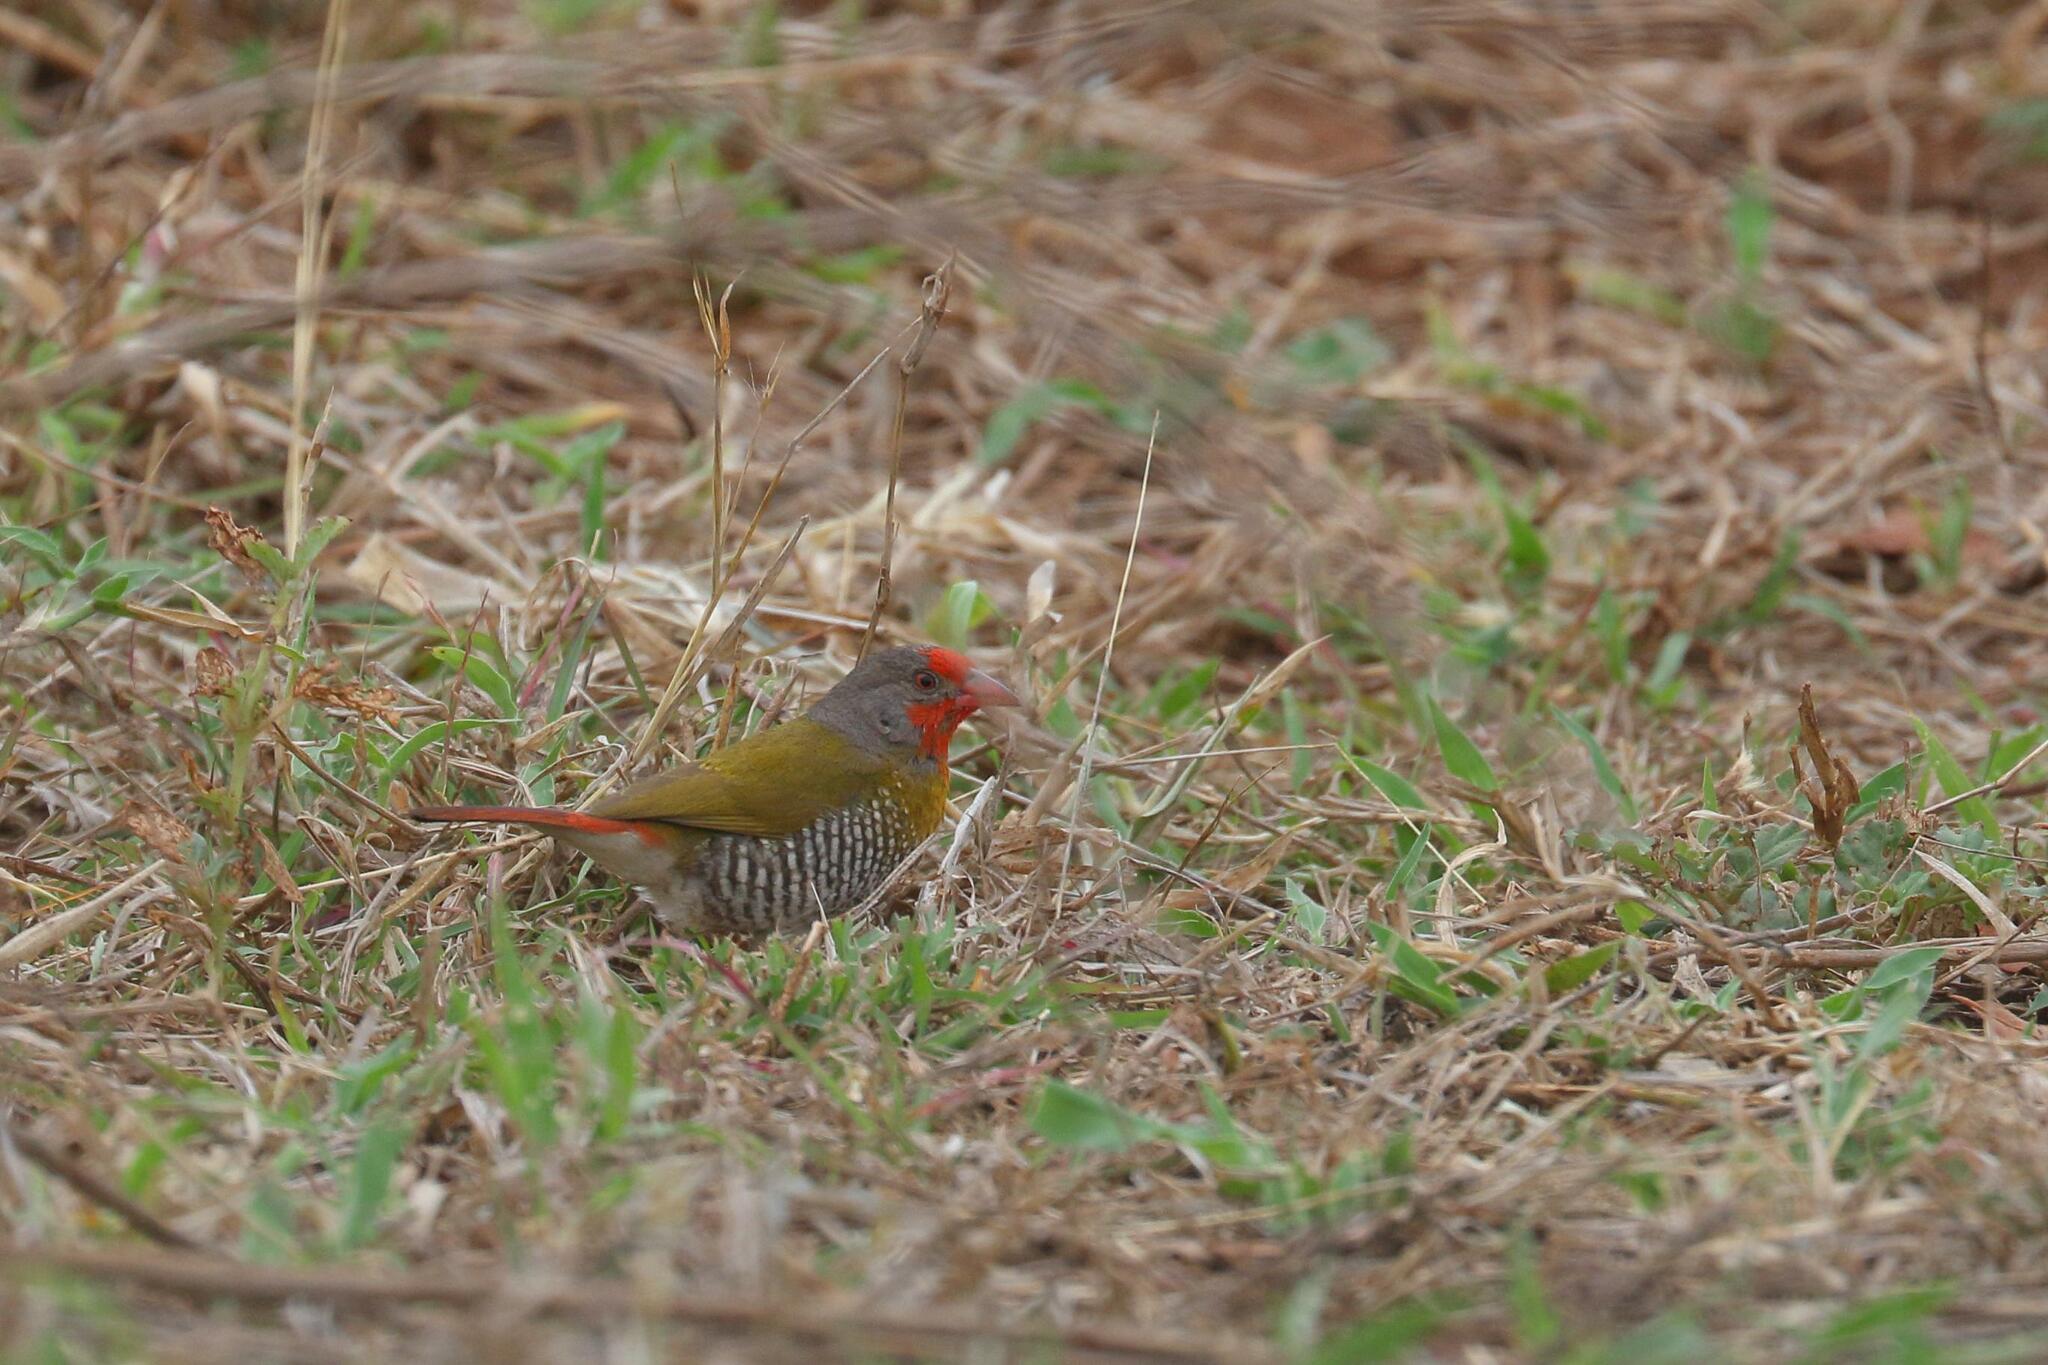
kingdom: Animalia
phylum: Chordata
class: Aves
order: Passeriformes
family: Estrildidae
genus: Pytilia
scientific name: Pytilia melba
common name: Green-winged pytilia
